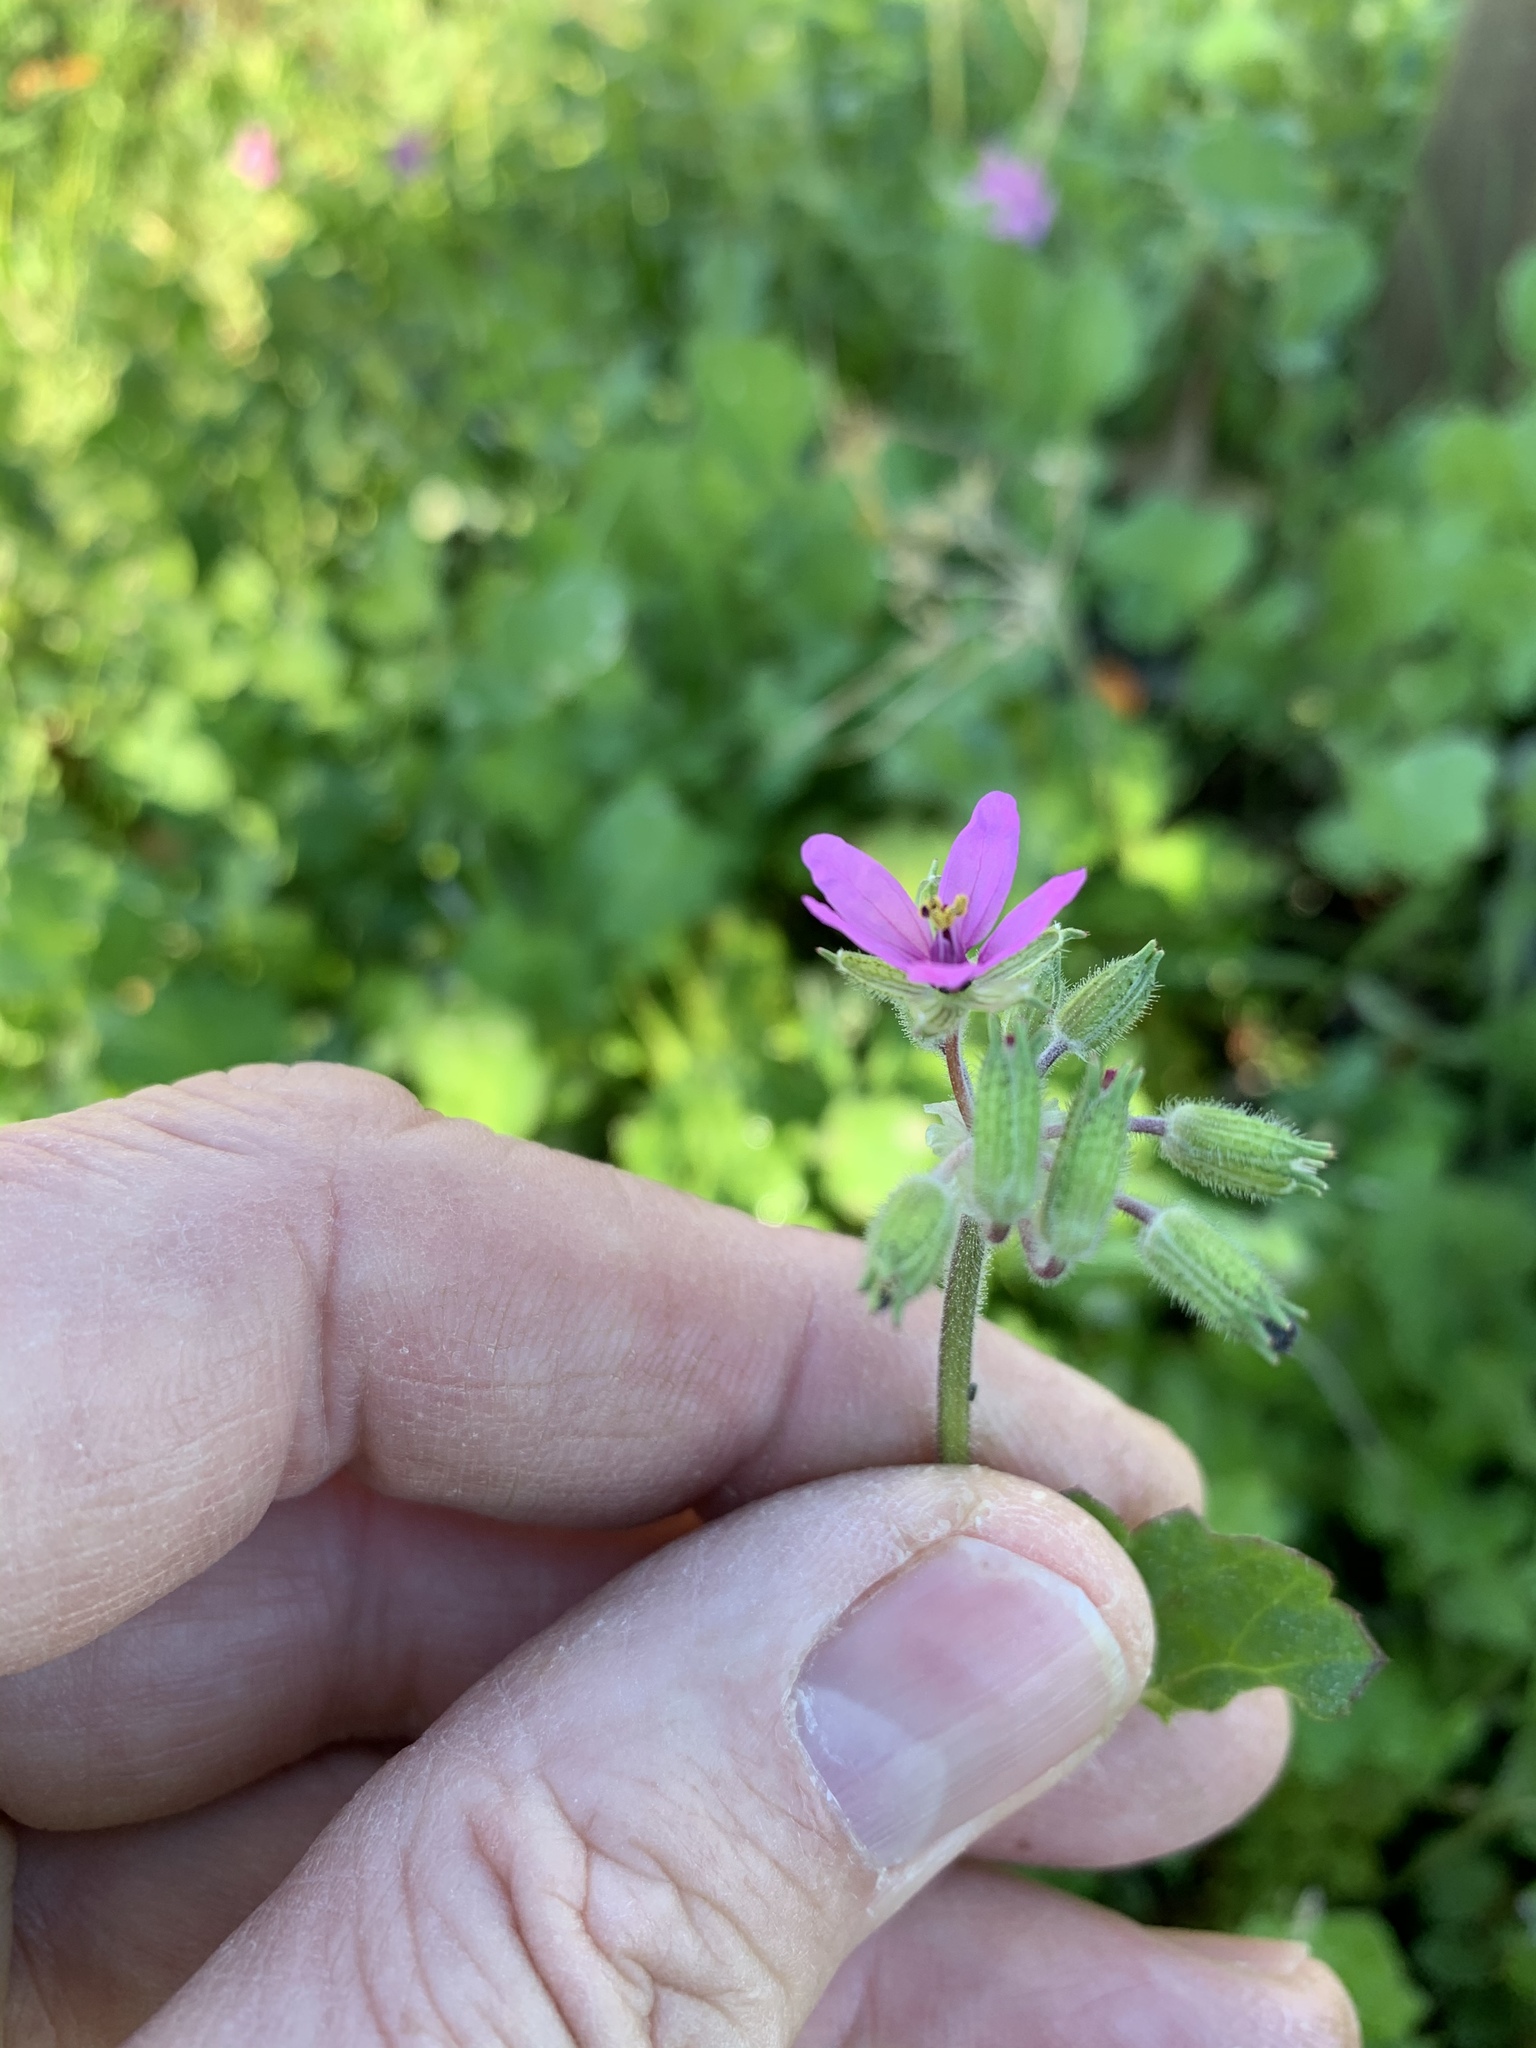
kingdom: Plantae
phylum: Tracheophyta
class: Magnoliopsida
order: Geraniales
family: Geraniaceae
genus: Erodium
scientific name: Erodium moschatum
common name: Musk stork's-bill
